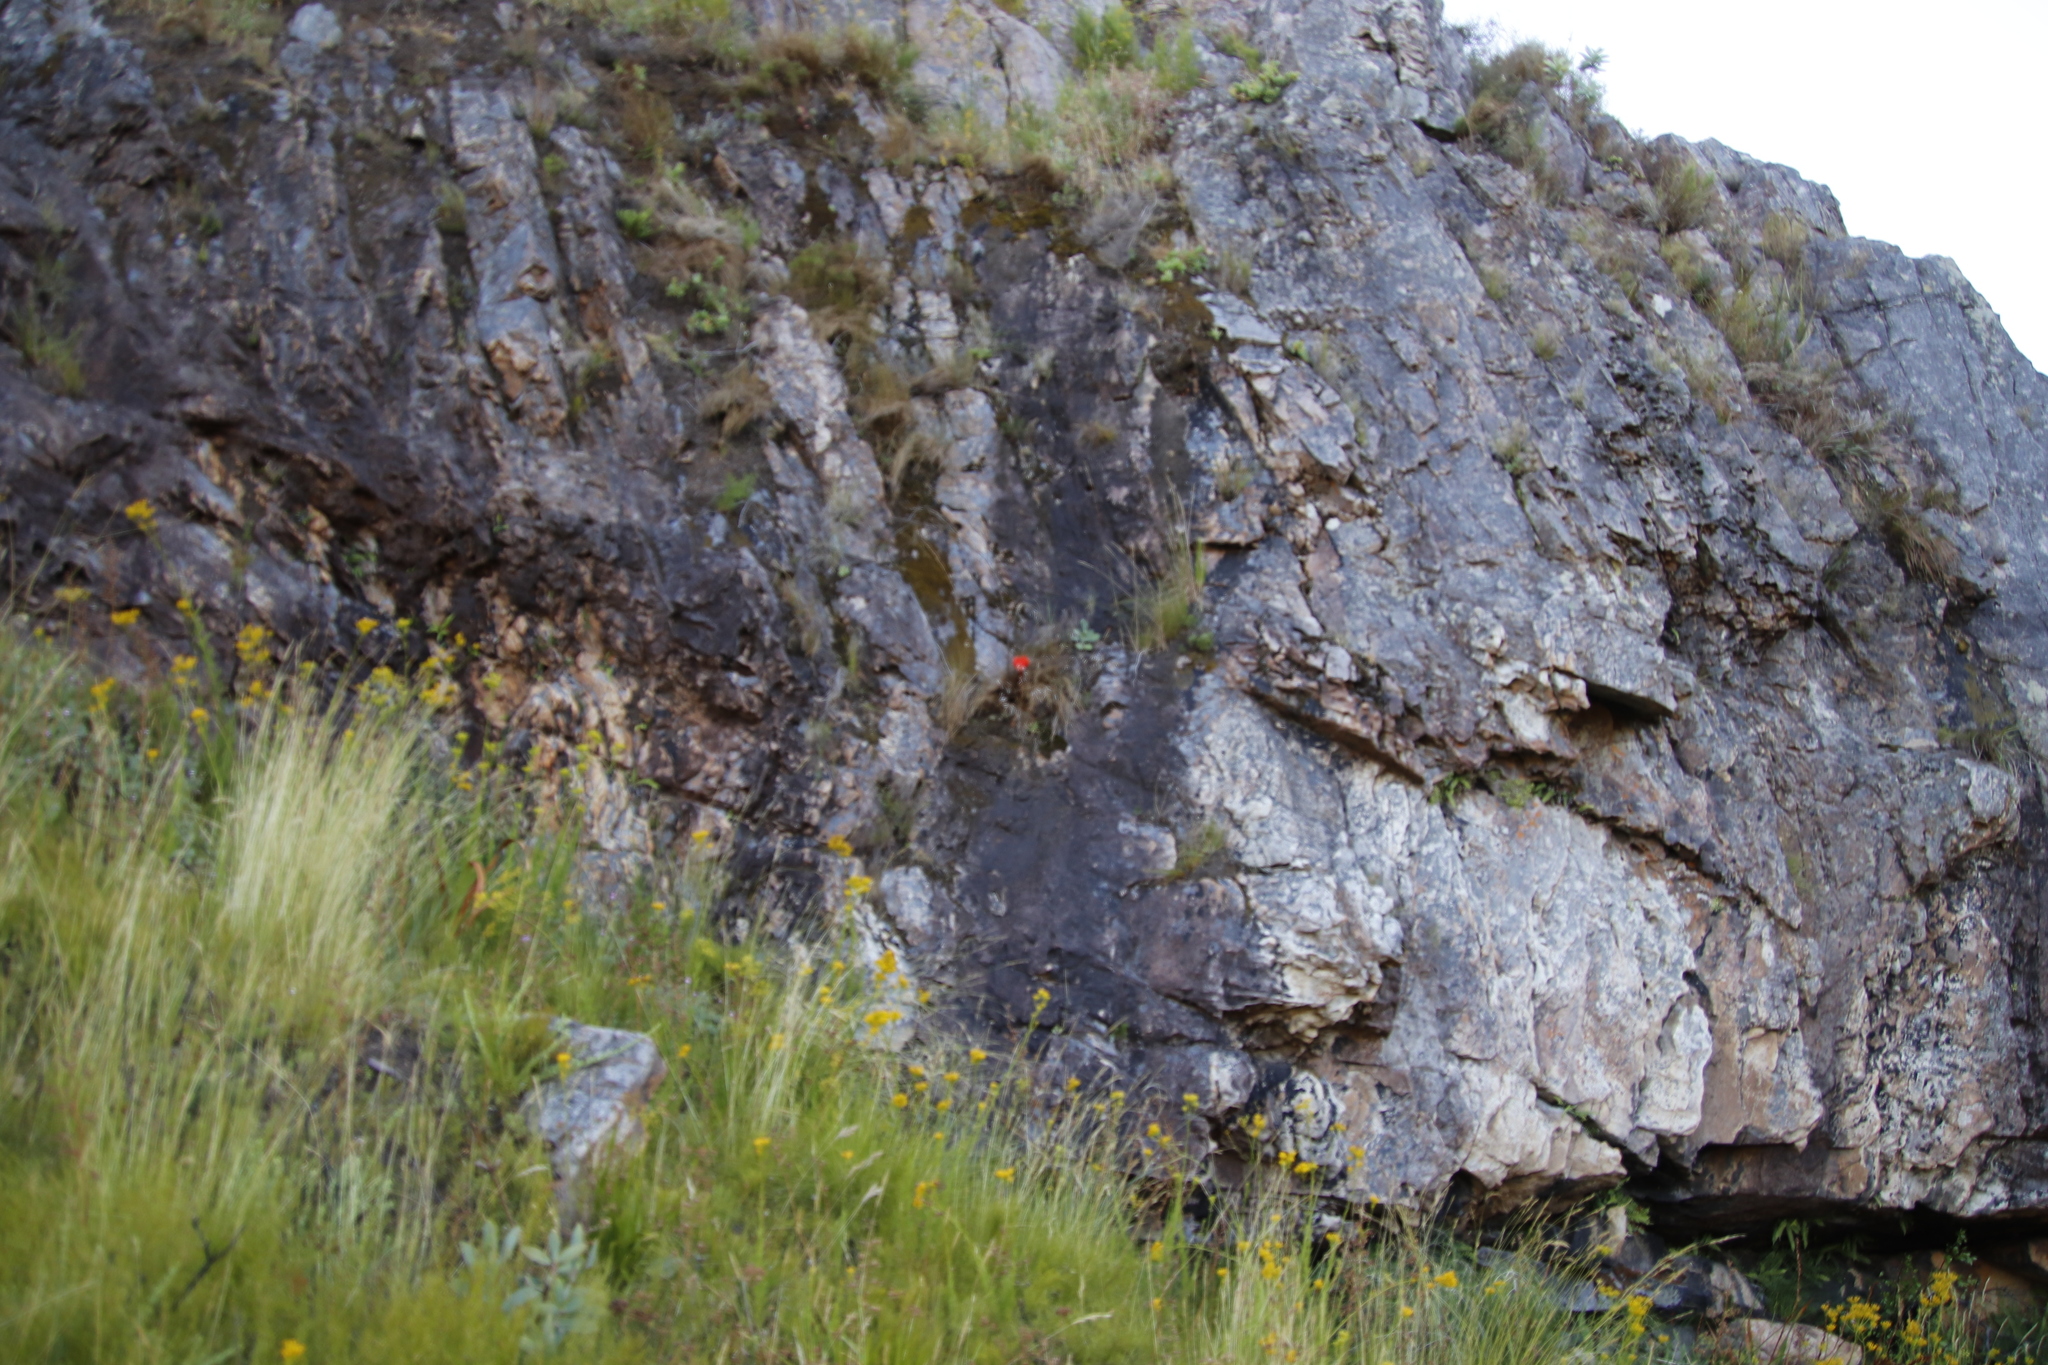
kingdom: Plantae
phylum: Tracheophyta
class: Liliopsida
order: Asparagales
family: Amaryllidaceae
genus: Haemanthus
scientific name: Haemanthus sanguineus
